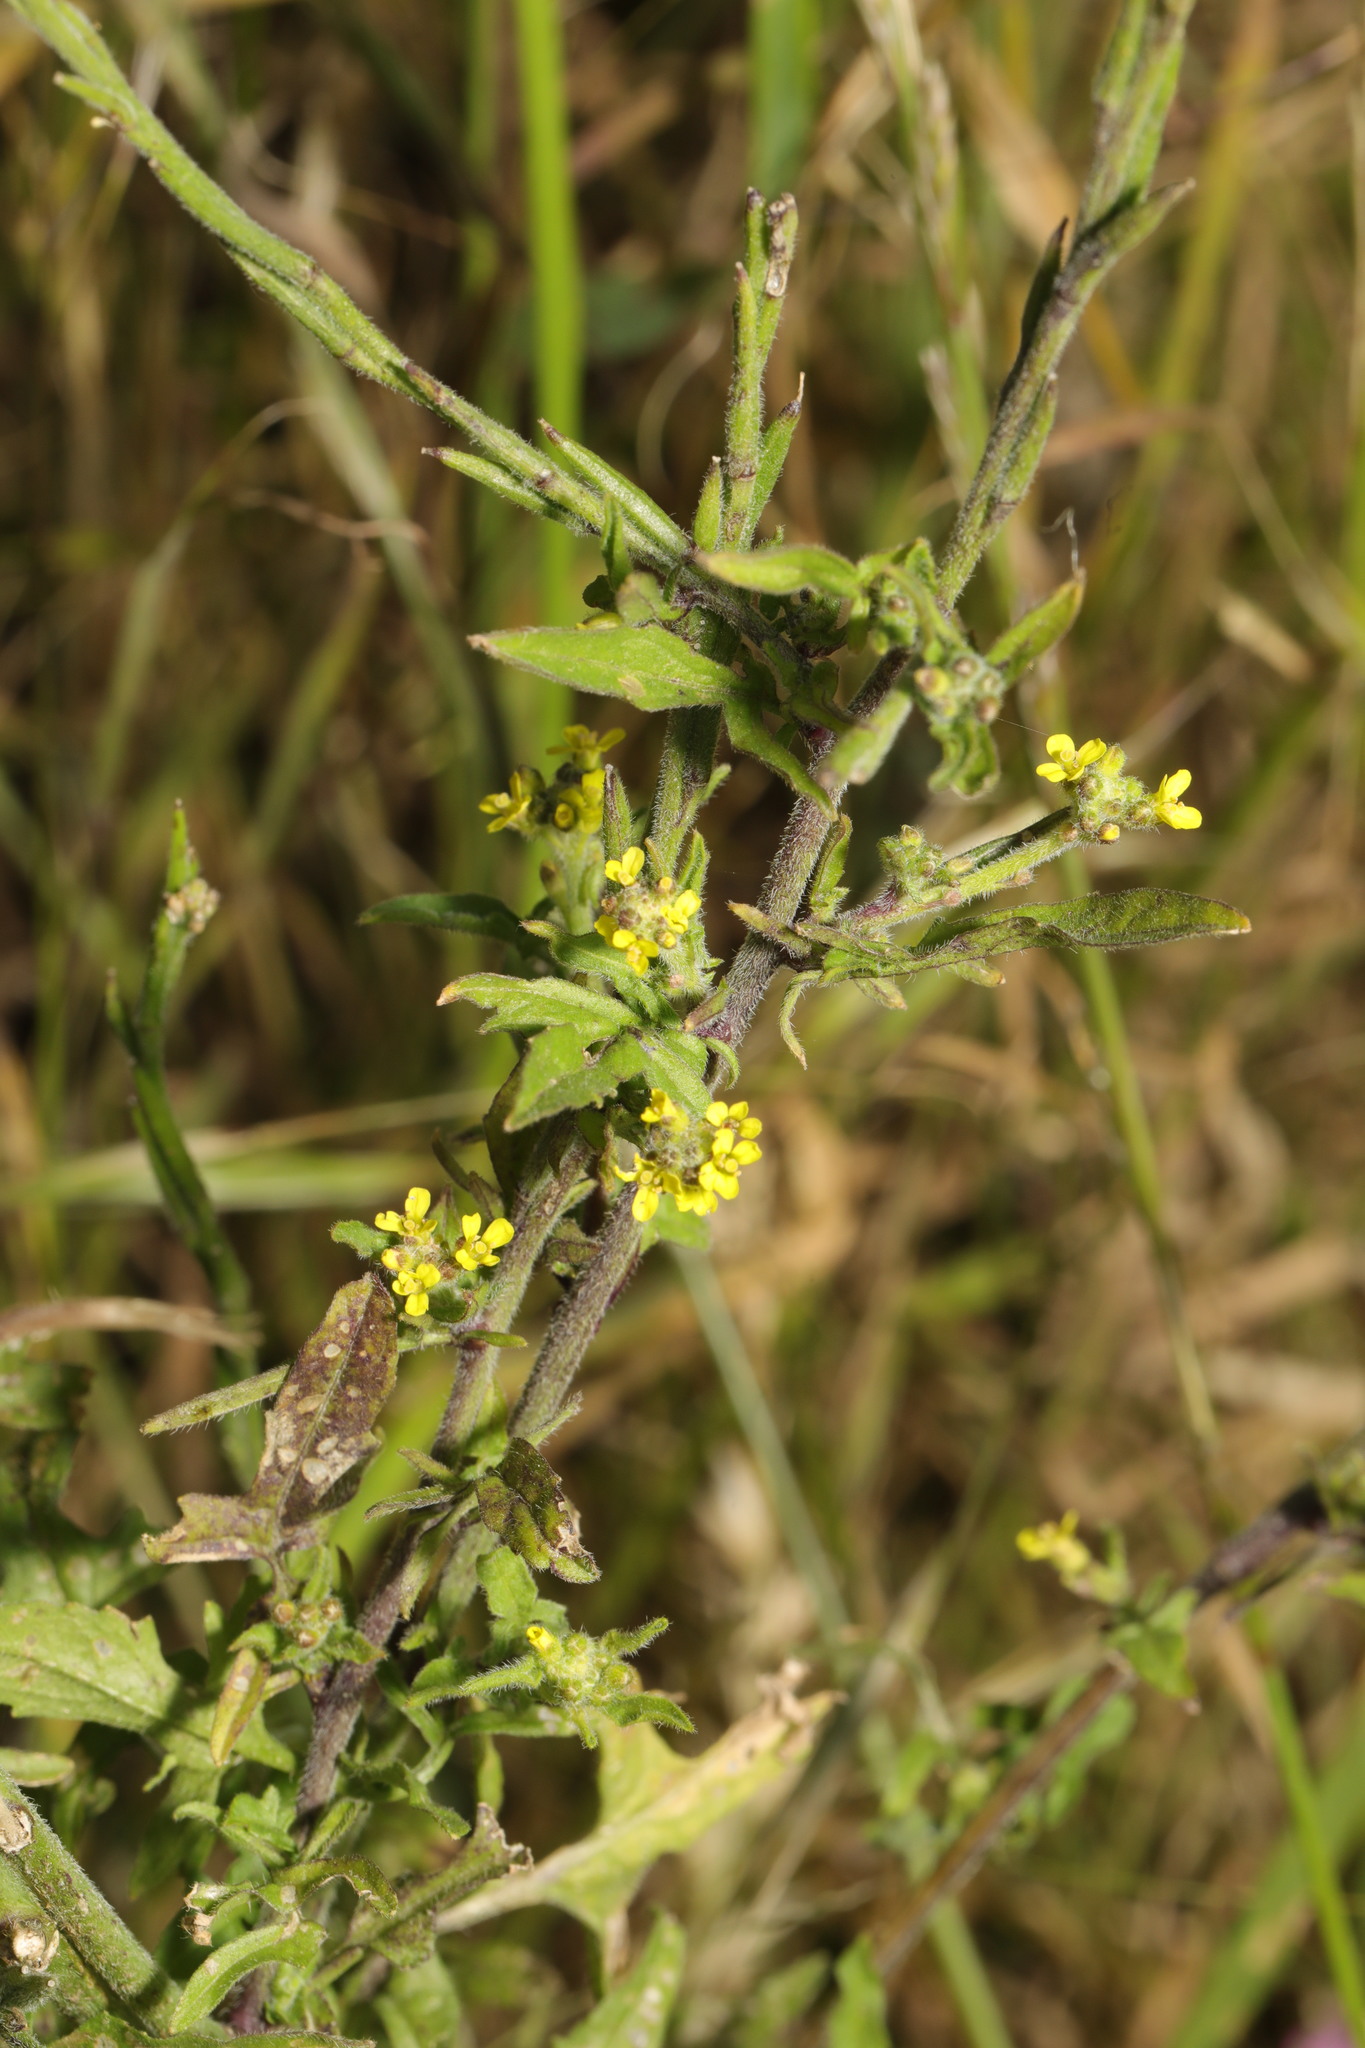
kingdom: Plantae
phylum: Tracheophyta
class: Magnoliopsida
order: Brassicales
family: Brassicaceae
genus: Sisymbrium
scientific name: Sisymbrium officinale
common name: Hedge mustard
